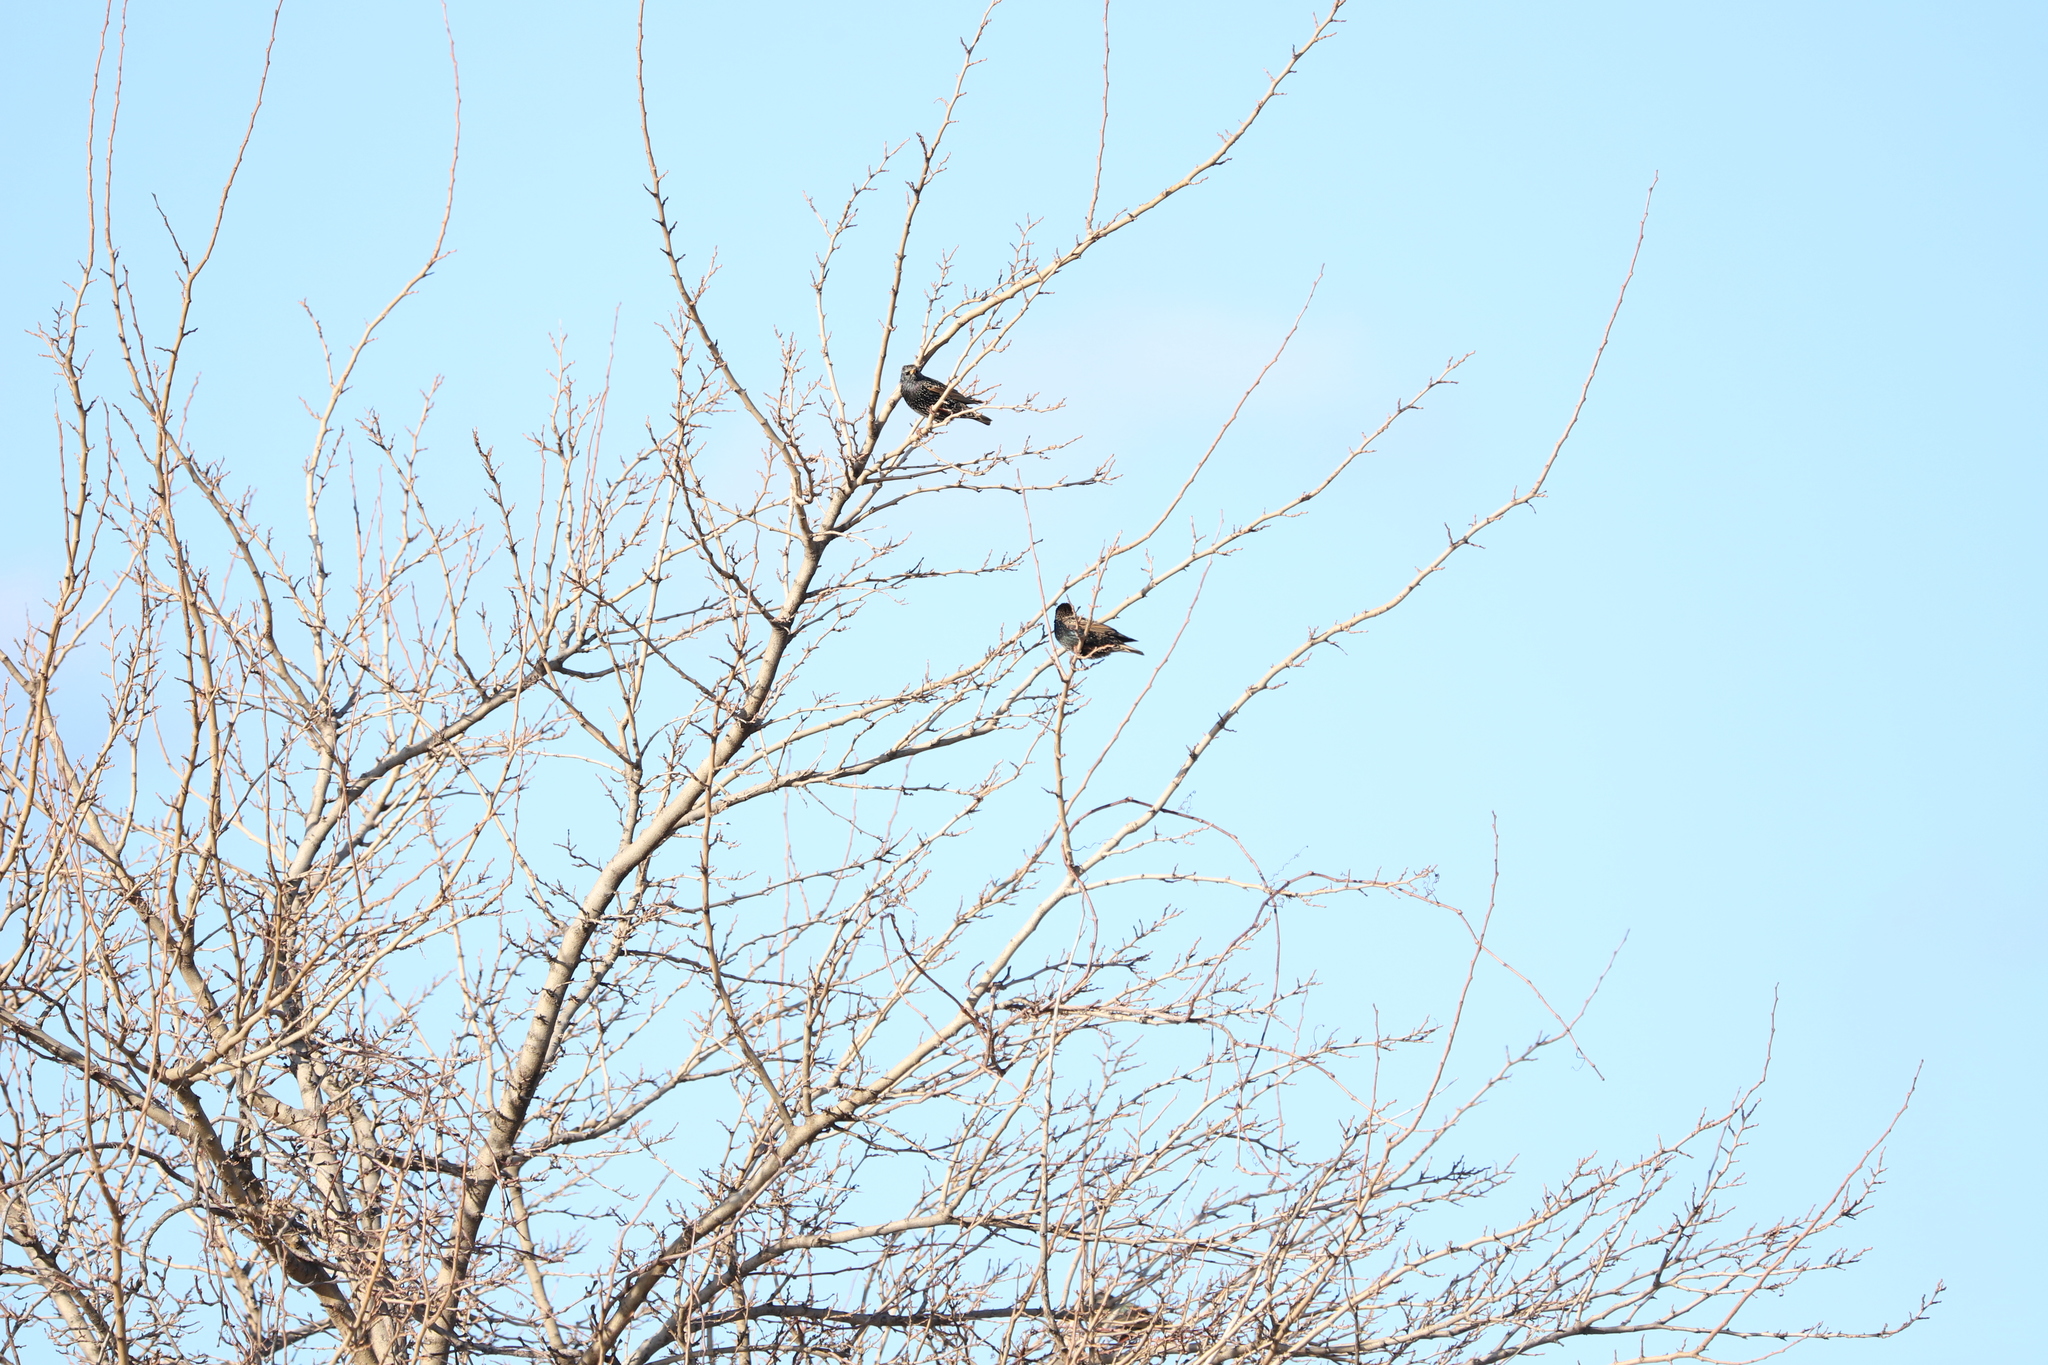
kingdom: Animalia
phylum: Chordata
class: Aves
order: Passeriformes
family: Sturnidae
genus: Sturnus
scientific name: Sturnus vulgaris
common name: Common starling
